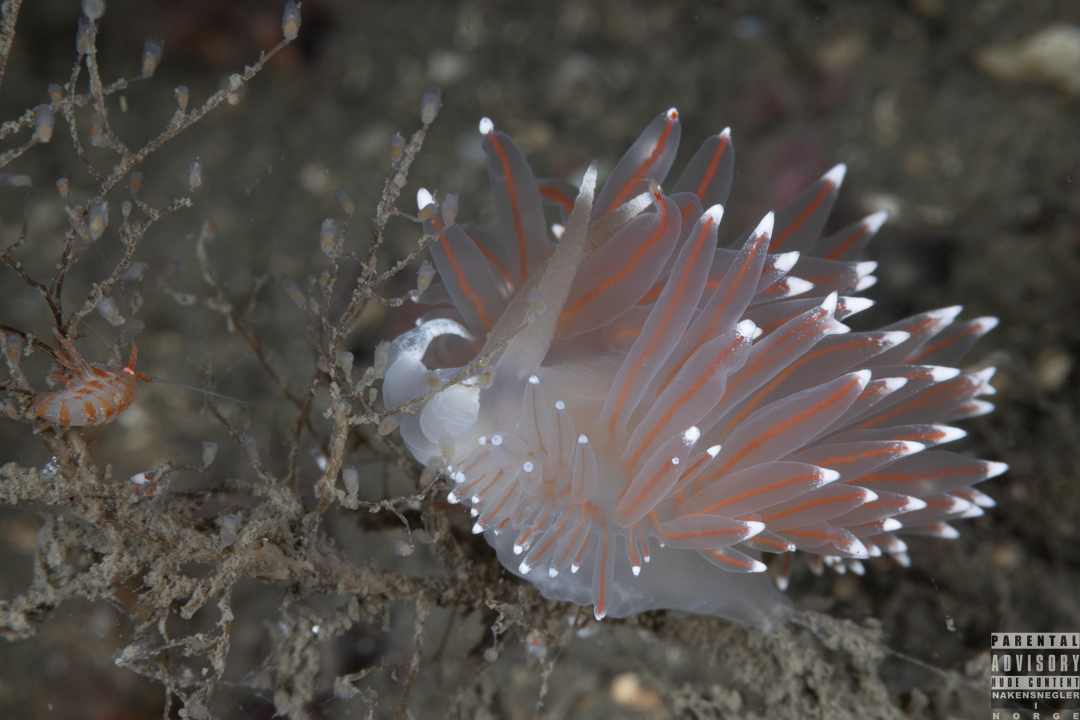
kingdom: Animalia
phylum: Mollusca
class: Gastropoda
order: Nudibranchia
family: Coryphellidae
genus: Coryphella
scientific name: Coryphella nobilis
